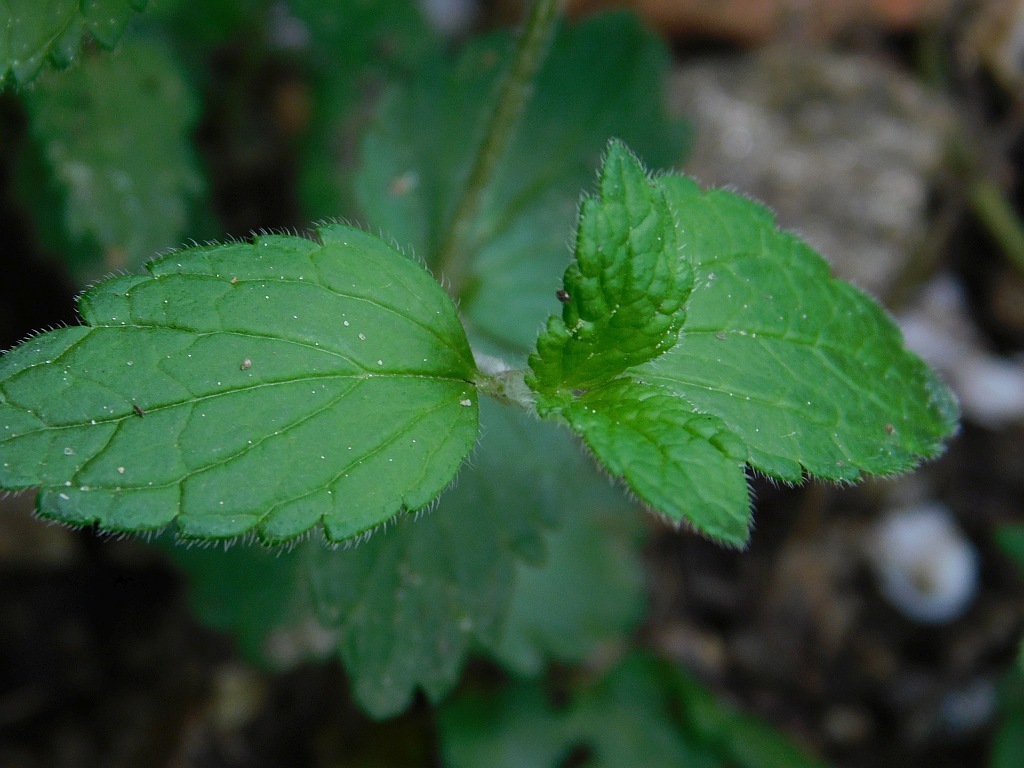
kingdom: Plantae
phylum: Tracheophyta
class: Magnoliopsida
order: Lamiales
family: Plantaginaceae
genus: Veronica
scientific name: Veronica chamaedrys
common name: Germander speedwell
